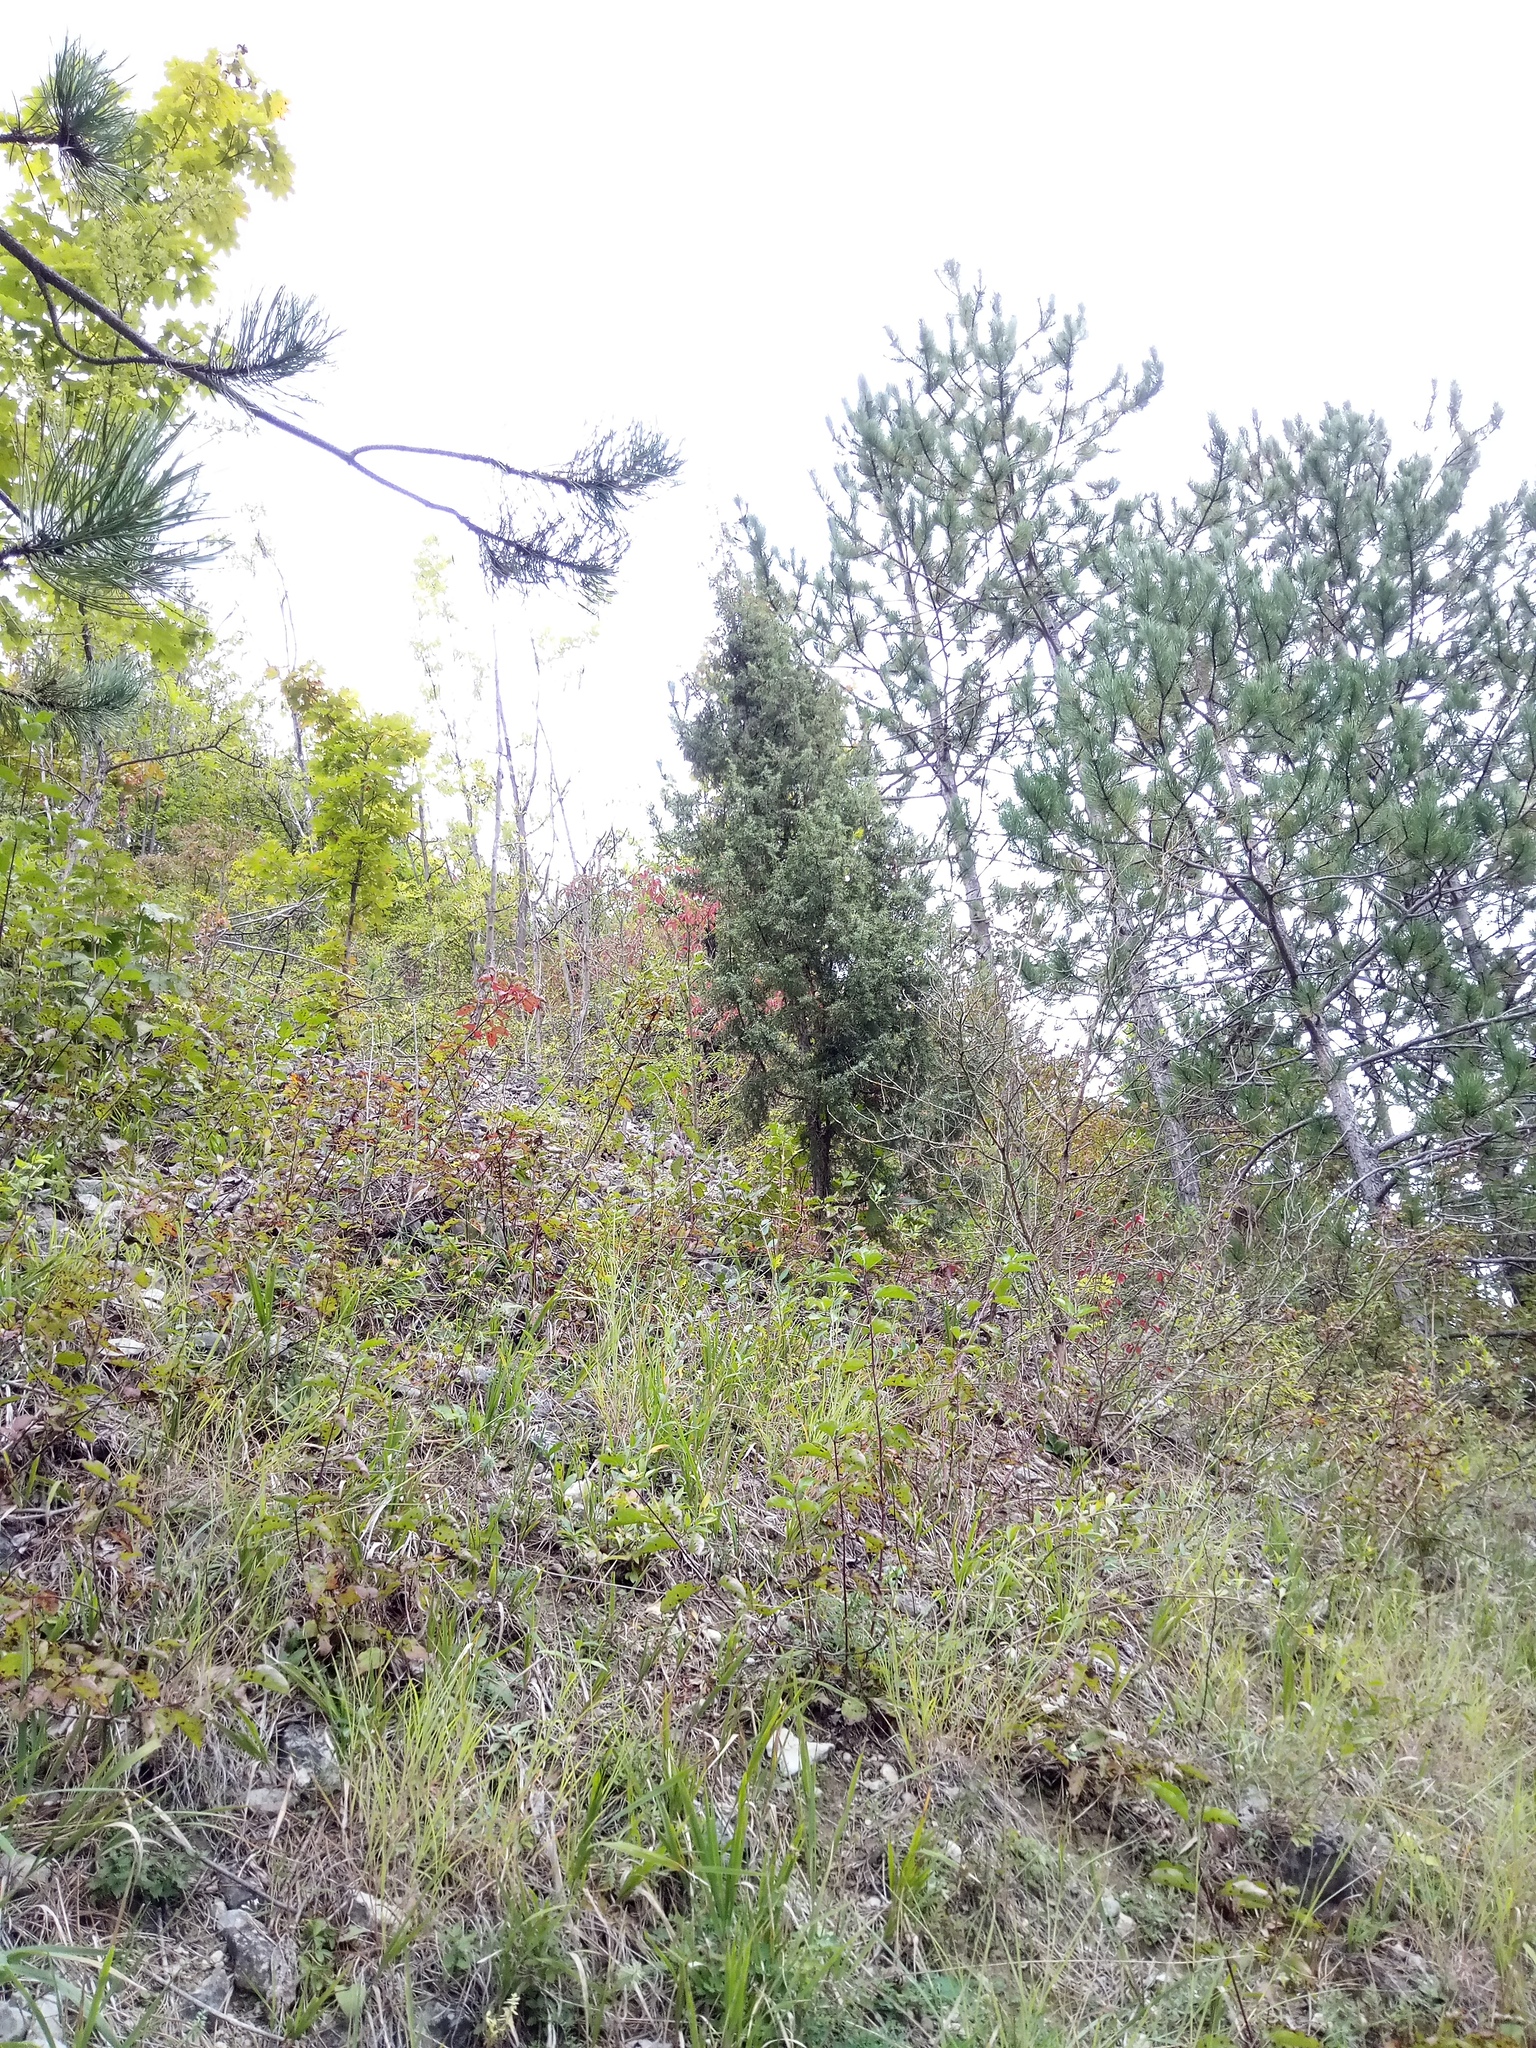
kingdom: Plantae
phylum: Tracheophyta
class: Pinopsida
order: Pinales
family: Cupressaceae
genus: Juniperus
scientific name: Juniperus communis
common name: Common juniper
